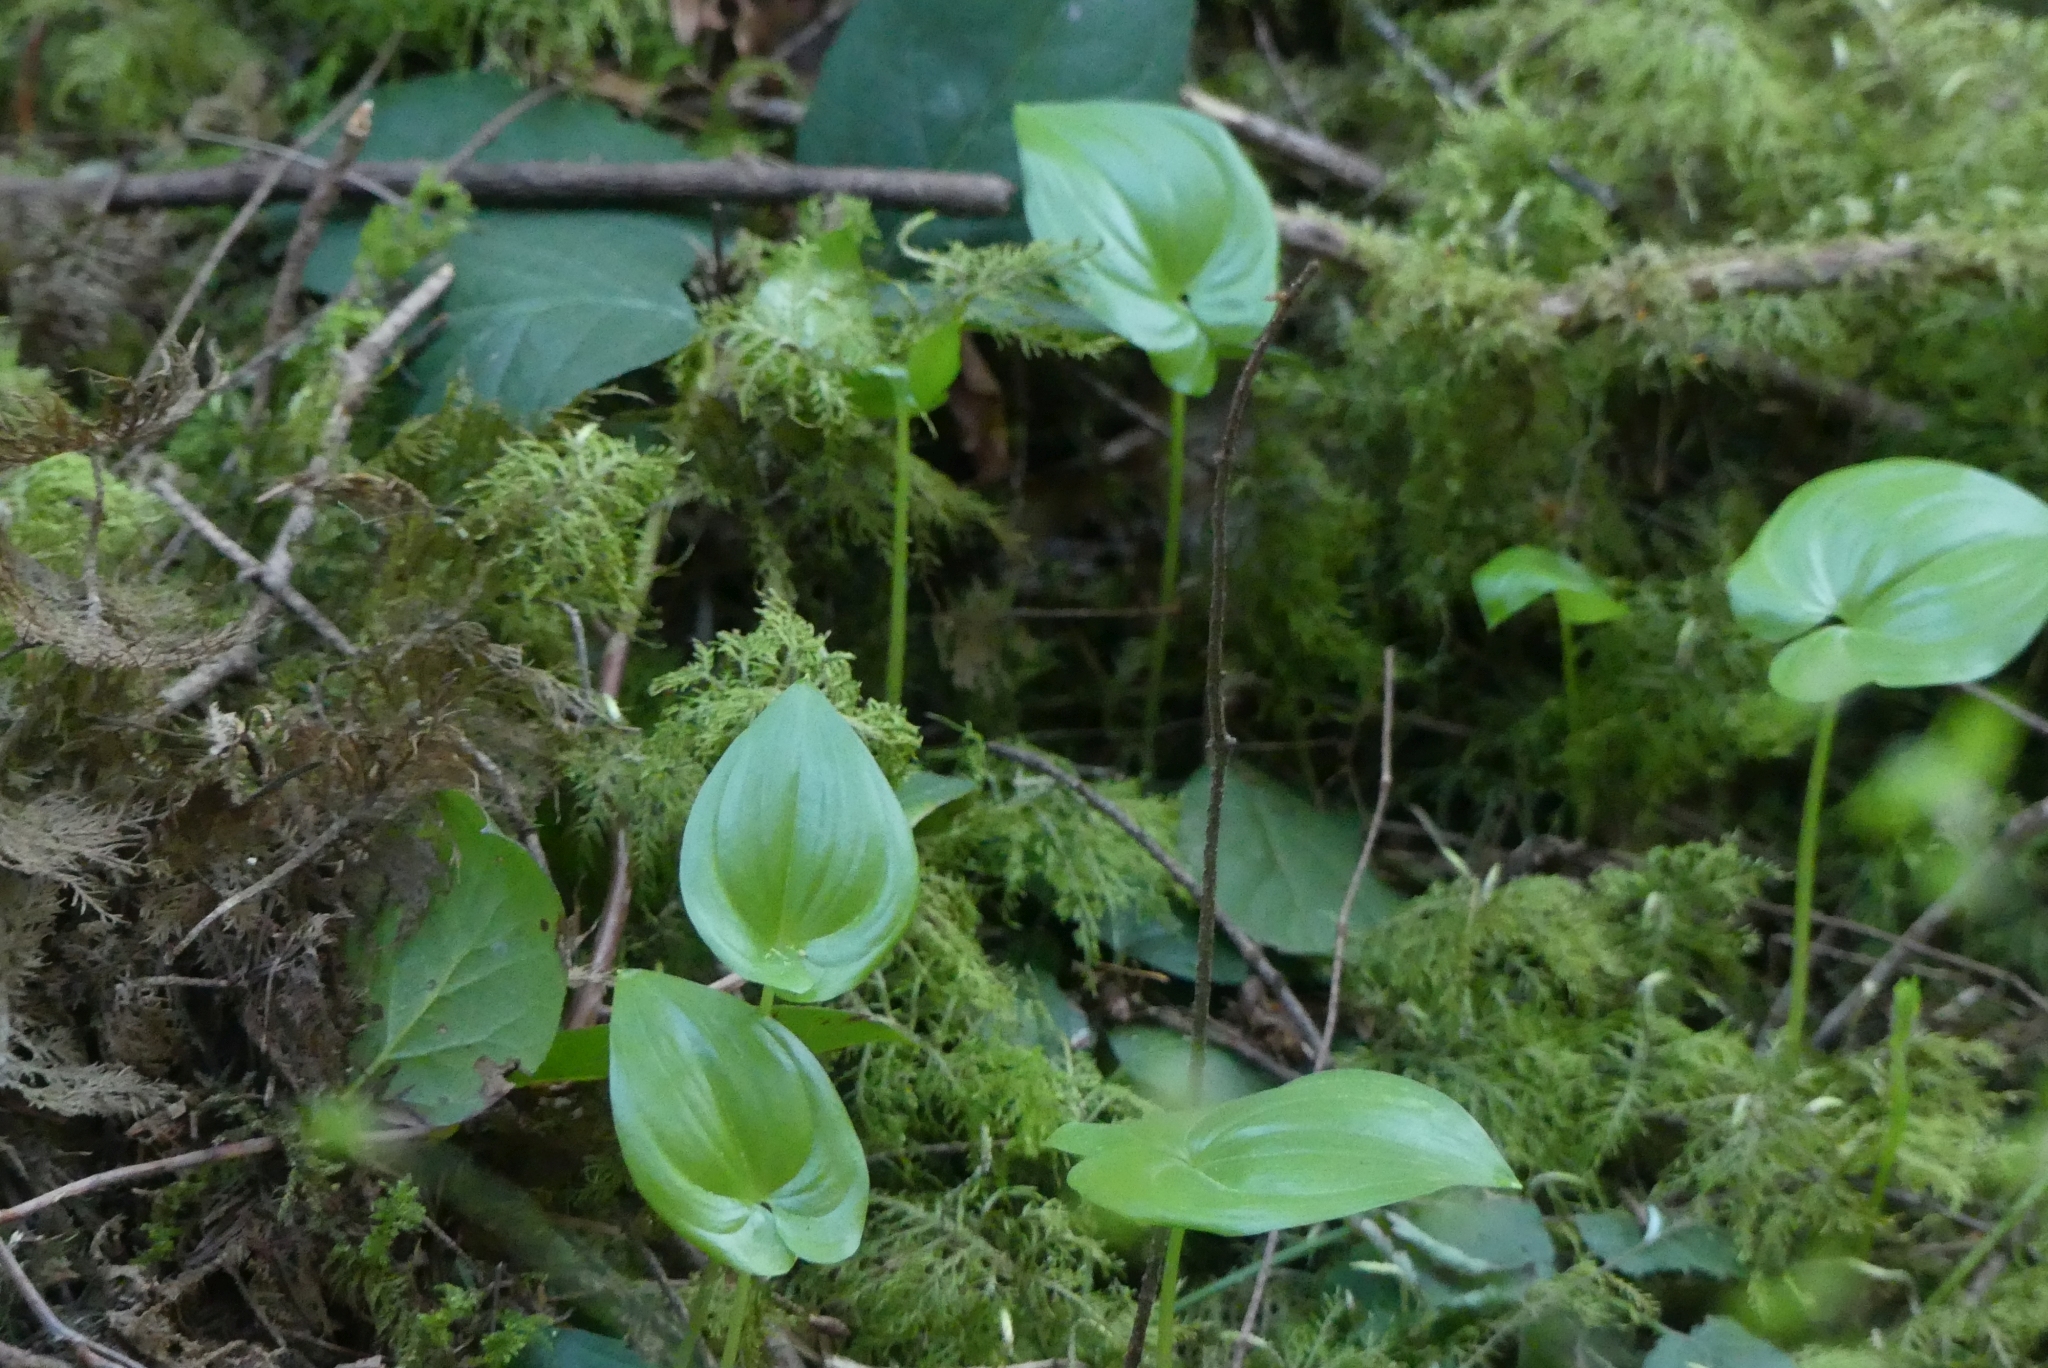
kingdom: Plantae
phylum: Tracheophyta
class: Liliopsida
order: Asparagales
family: Asparagaceae
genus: Maianthemum
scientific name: Maianthemum dilatatum
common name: False lily-of-the-valley
